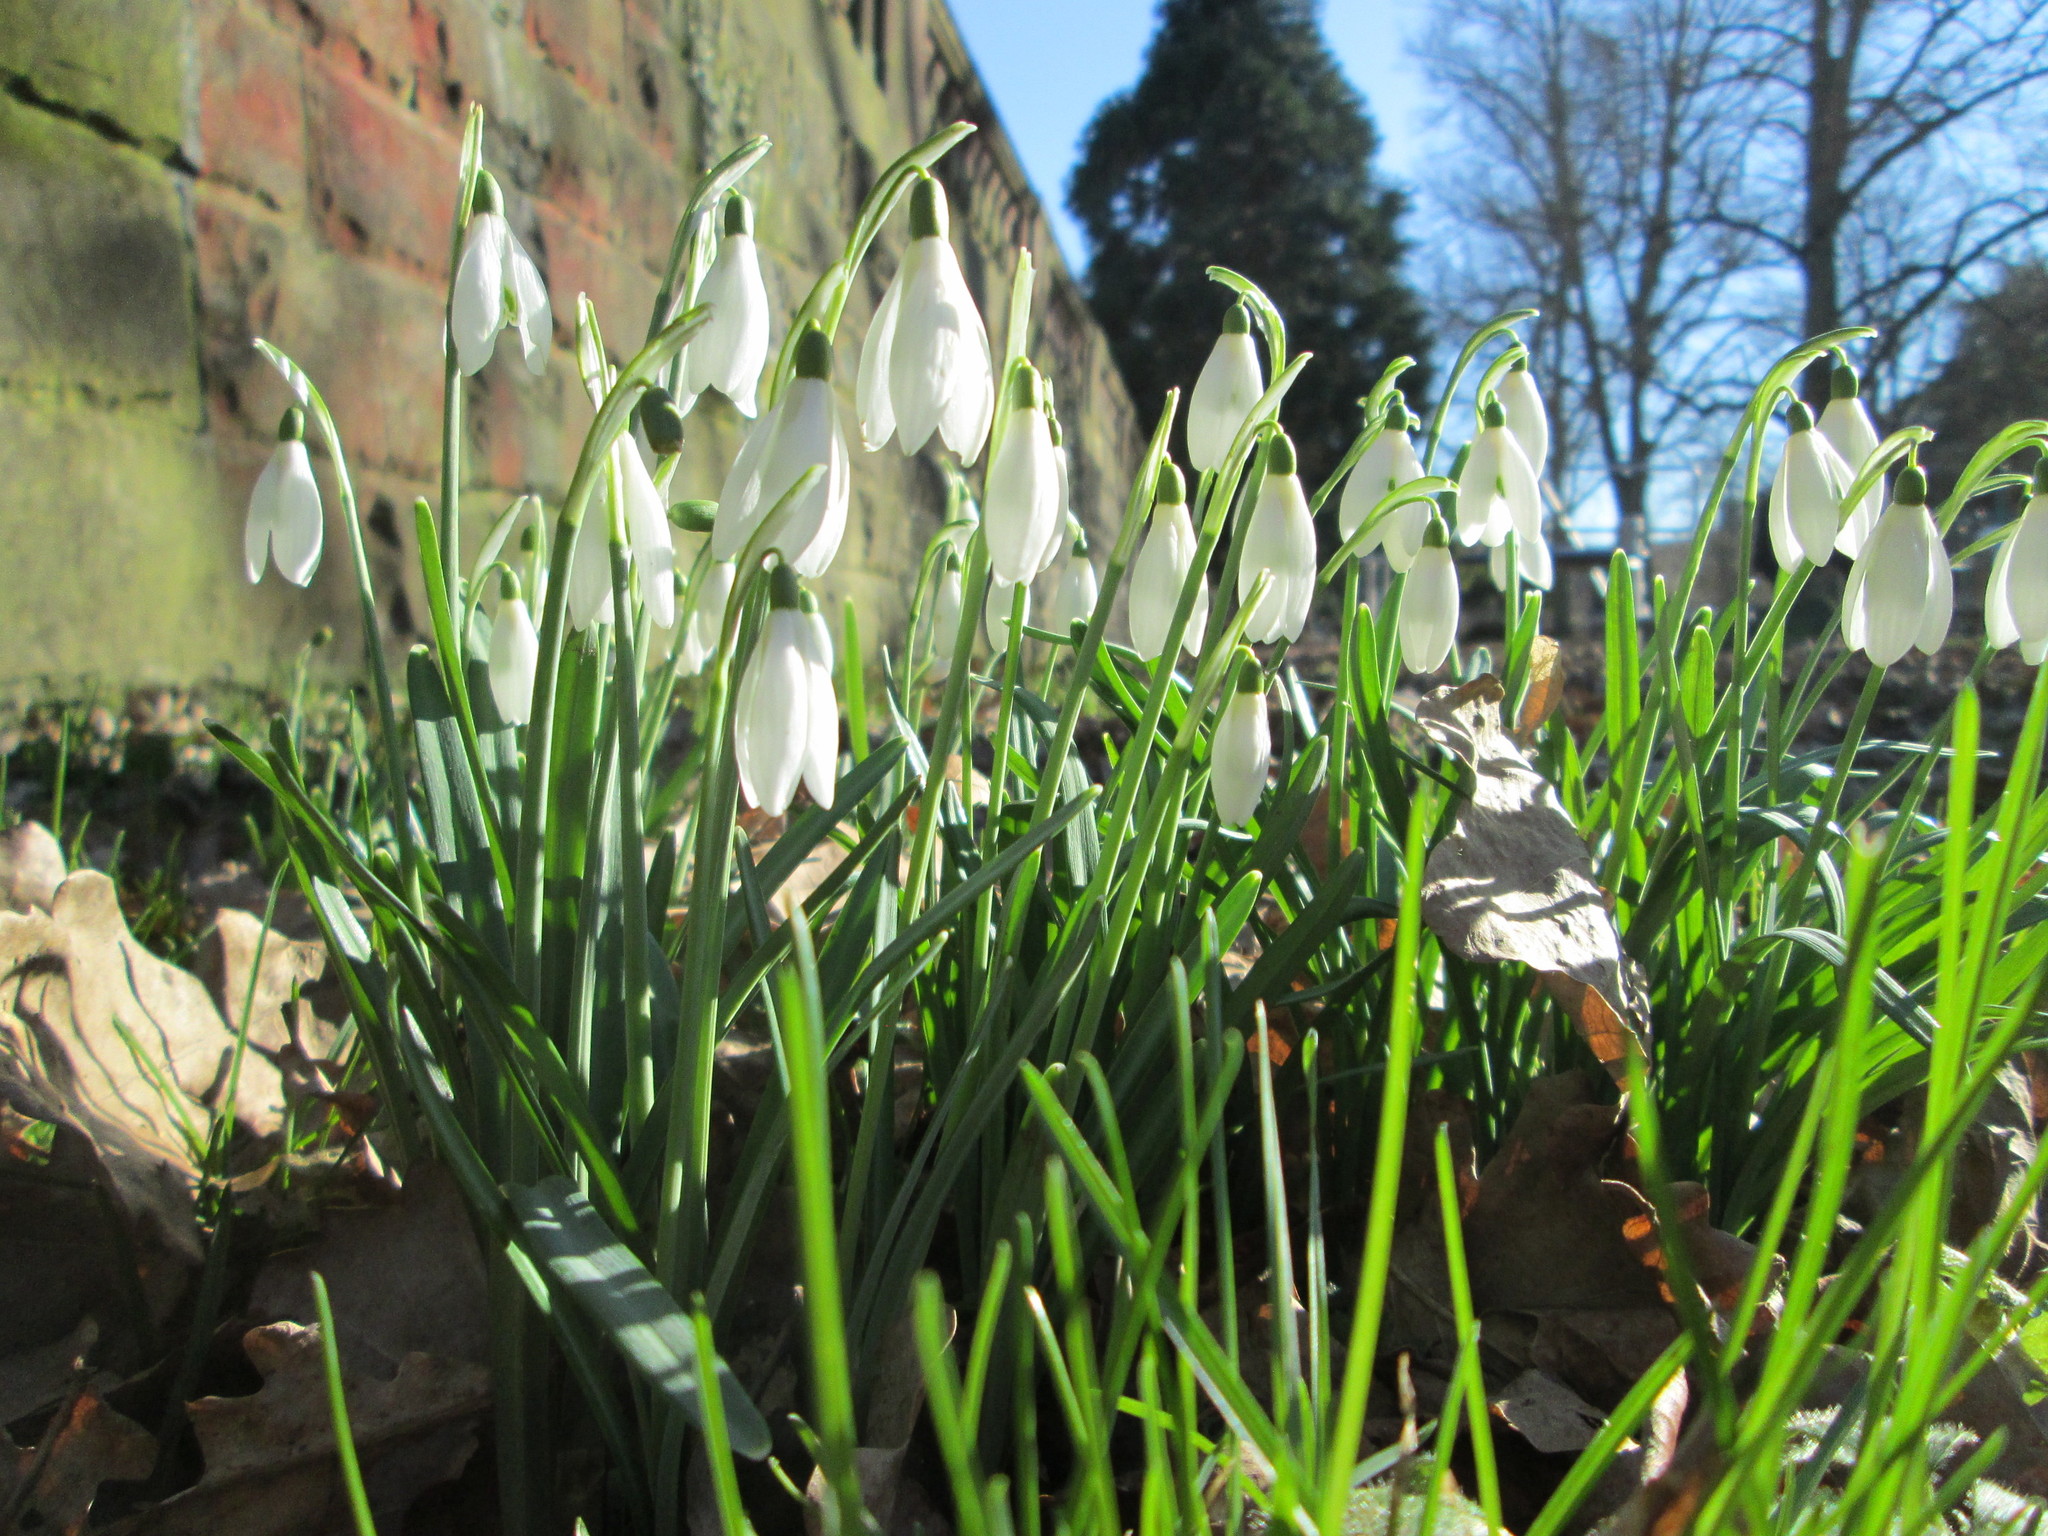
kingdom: Plantae
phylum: Tracheophyta
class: Liliopsida
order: Asparagales
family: Amaryllidaceae
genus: Galanthus
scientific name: Galanthus nivalis
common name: Snowdrop
